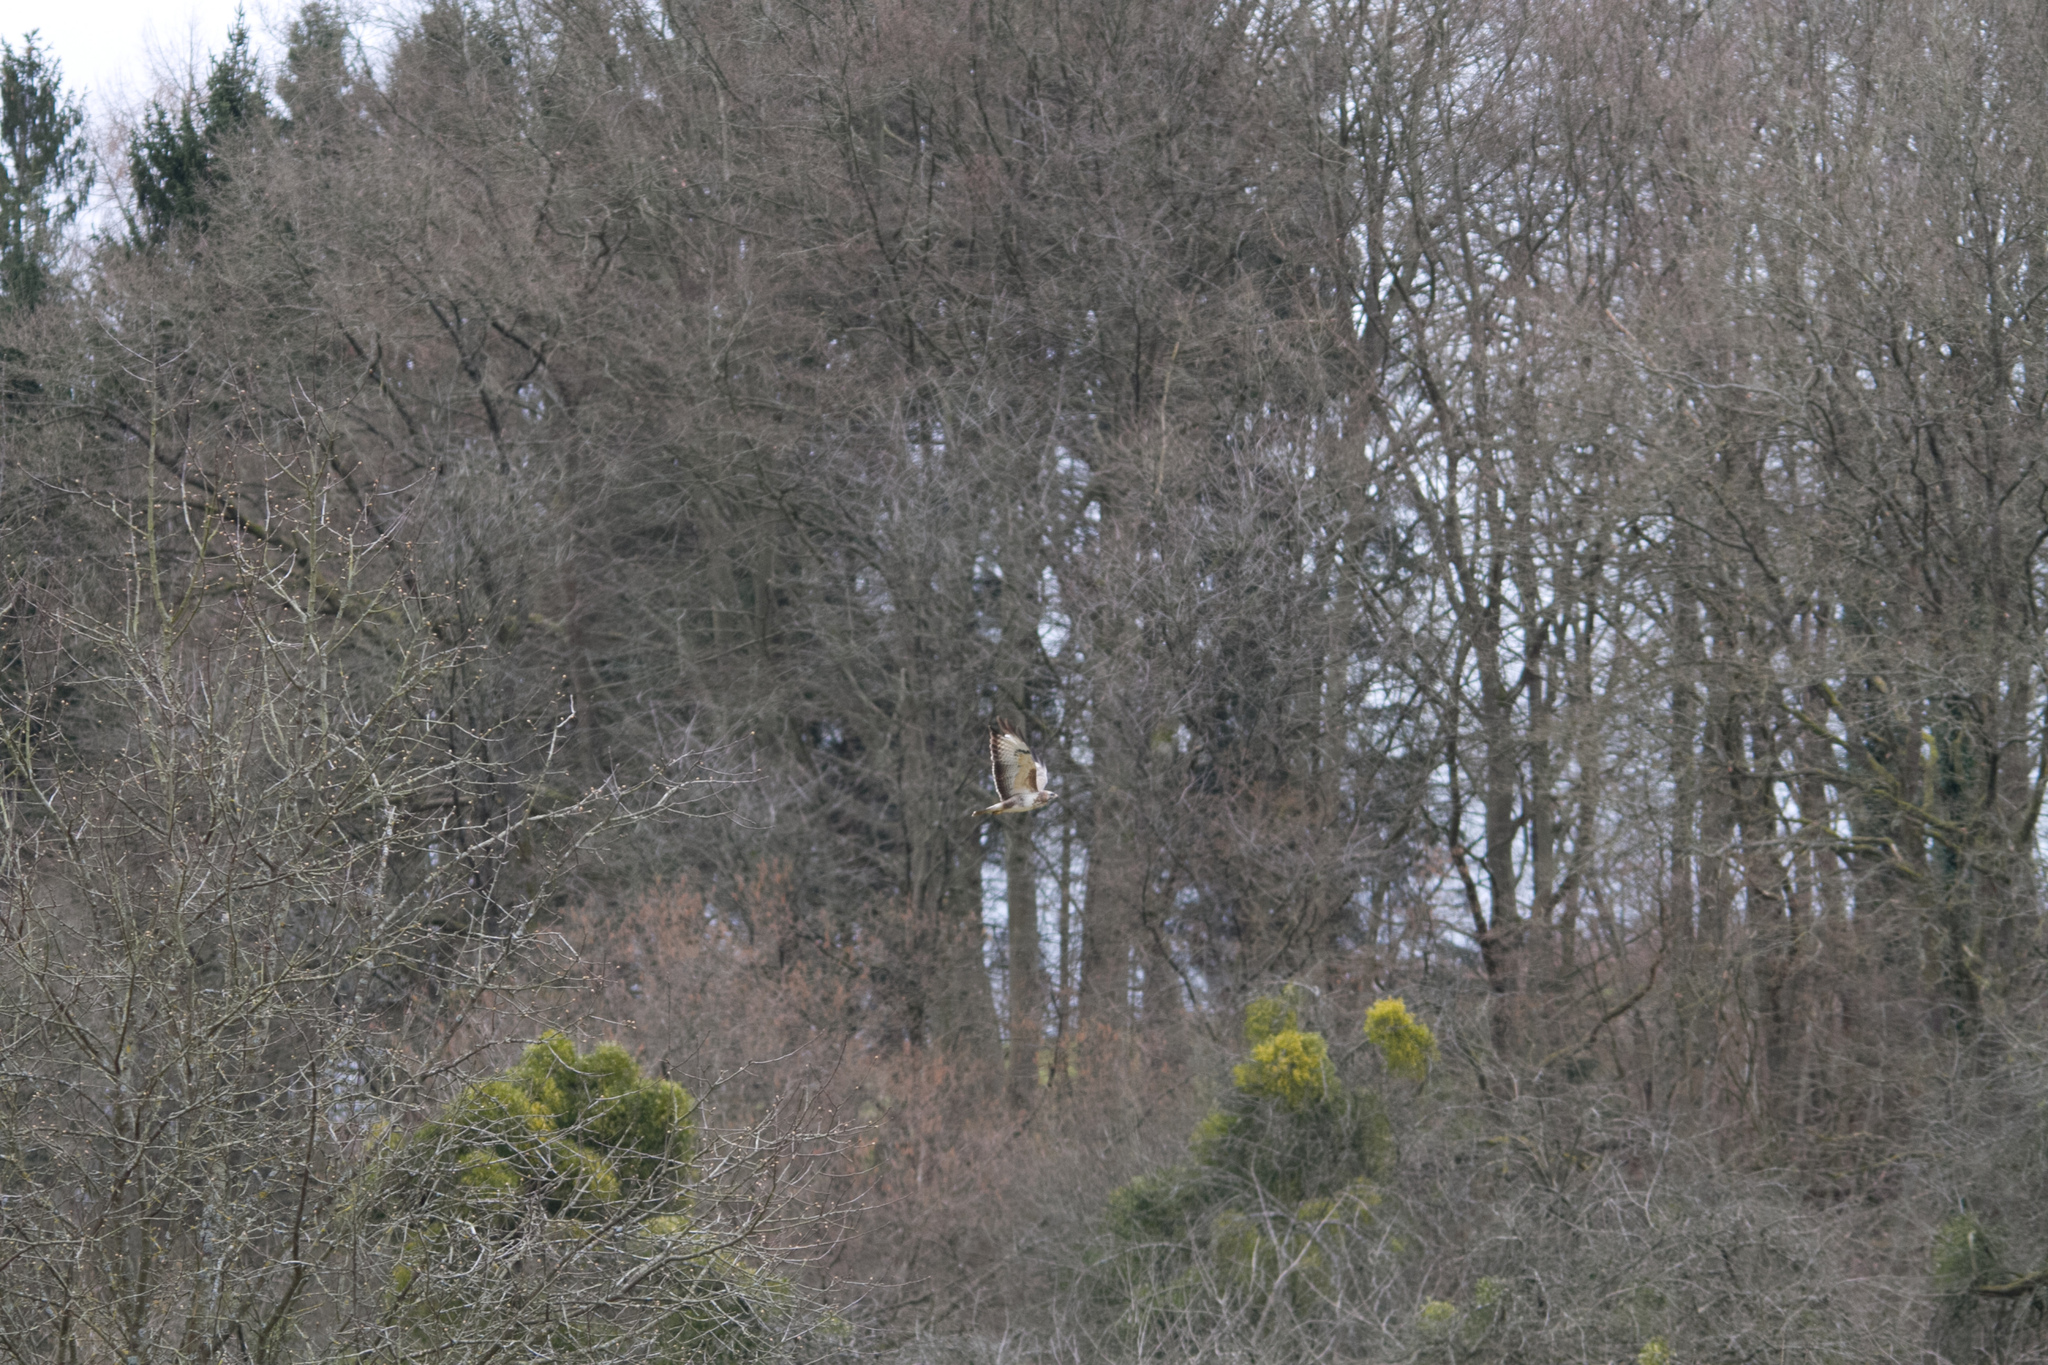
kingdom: Animalia
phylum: Chordata
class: Aves
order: Accipitriformes
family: Accipitridae
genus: Buteo
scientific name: Buteo buteo
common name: Common buzzard
